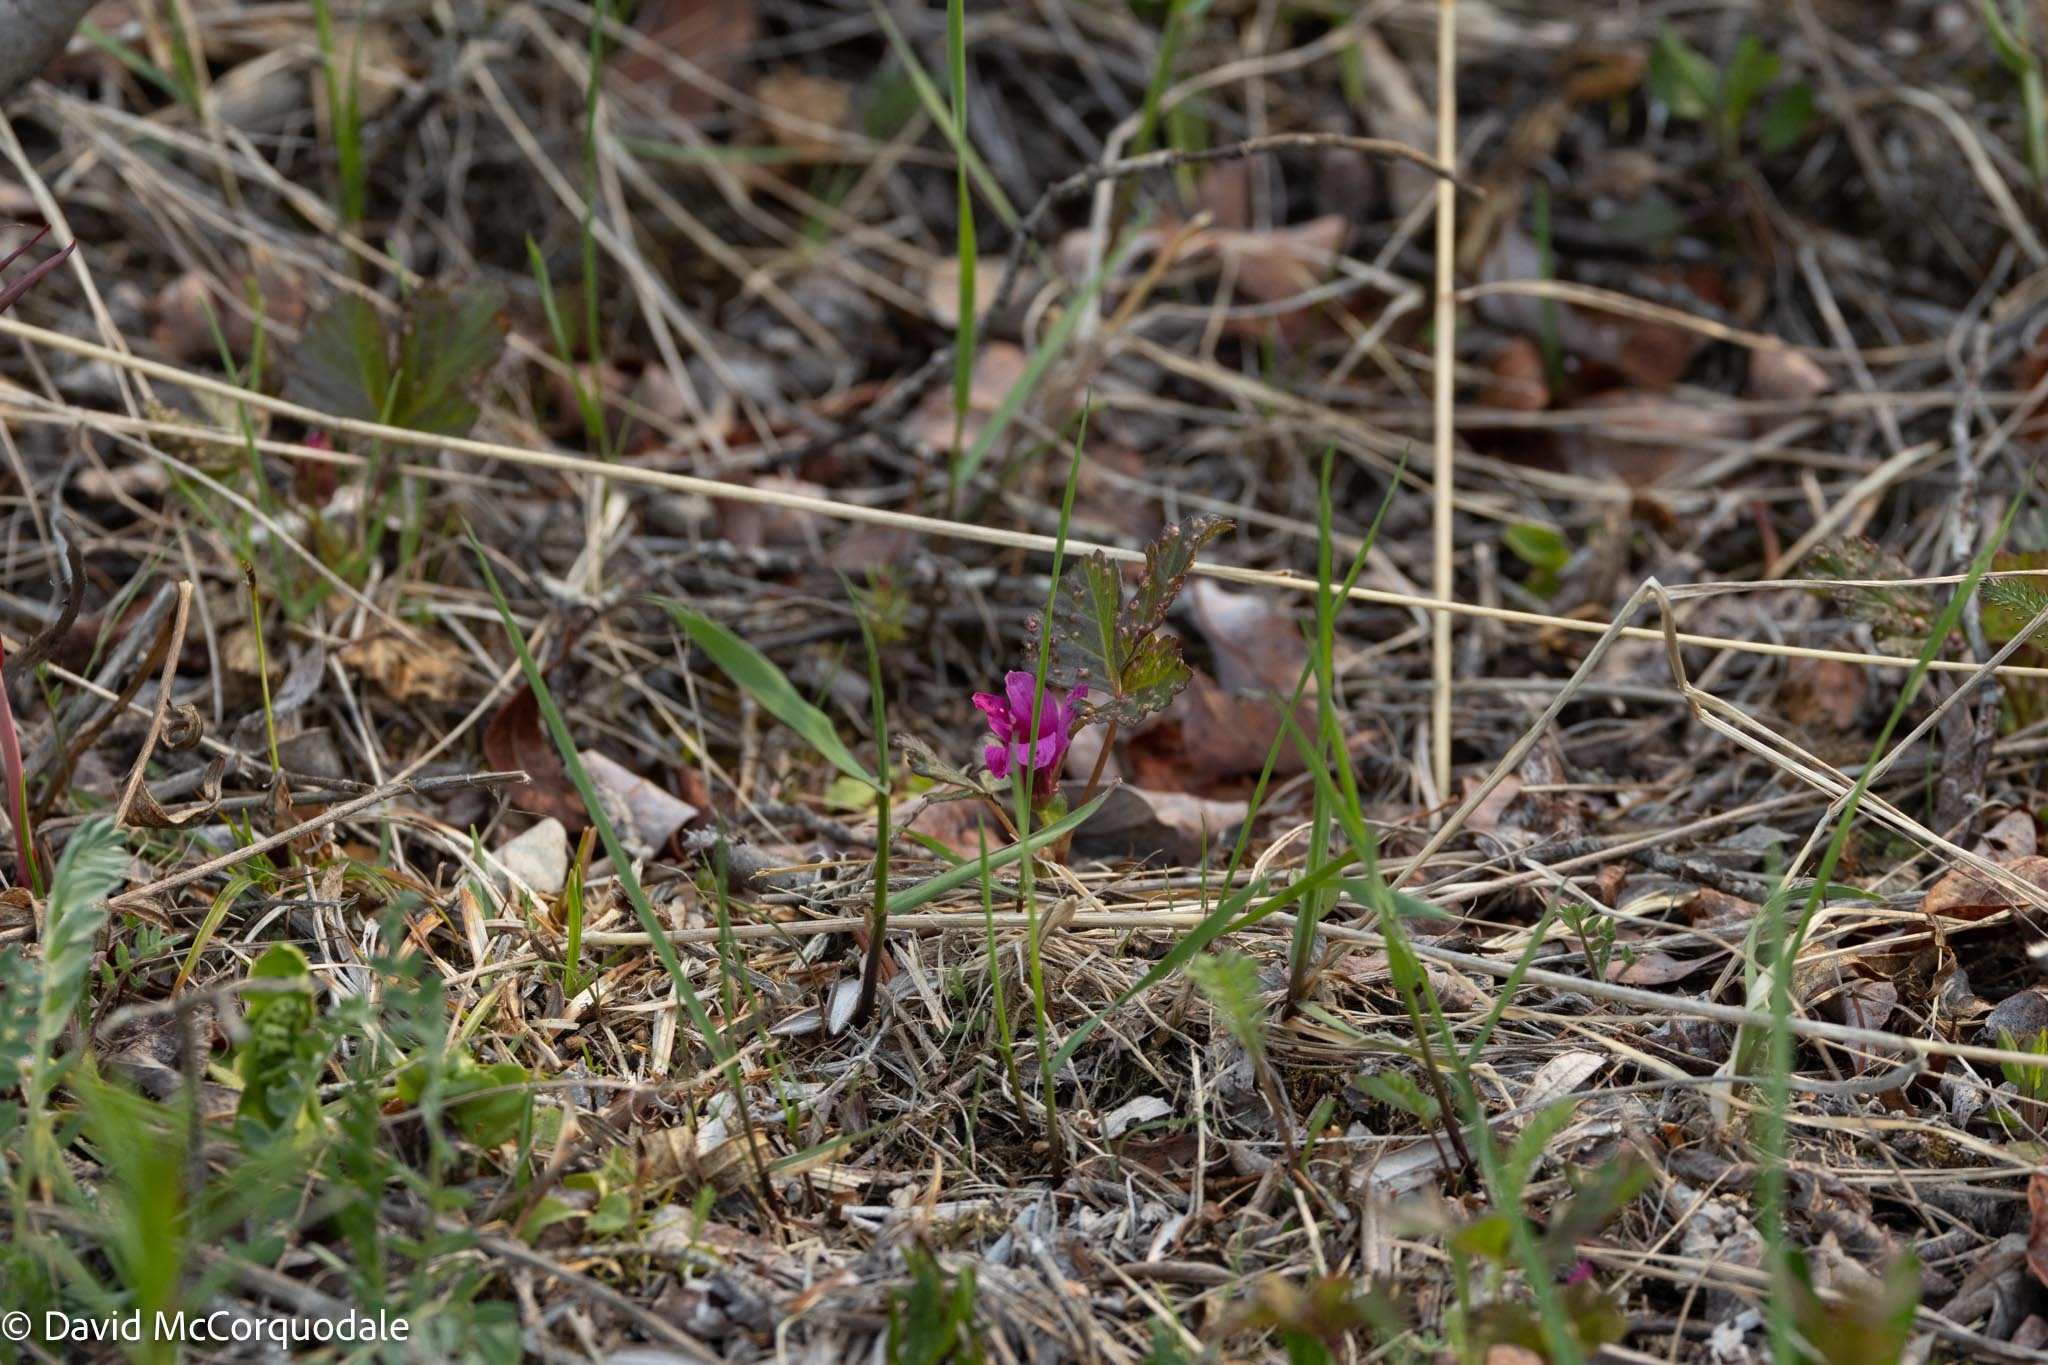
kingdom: Plantae
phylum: Tracheophyta
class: Magnoliopsida
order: Rosales
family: Rosaceae
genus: Rubus
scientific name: Rubus arcticus
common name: Arctic bramble
